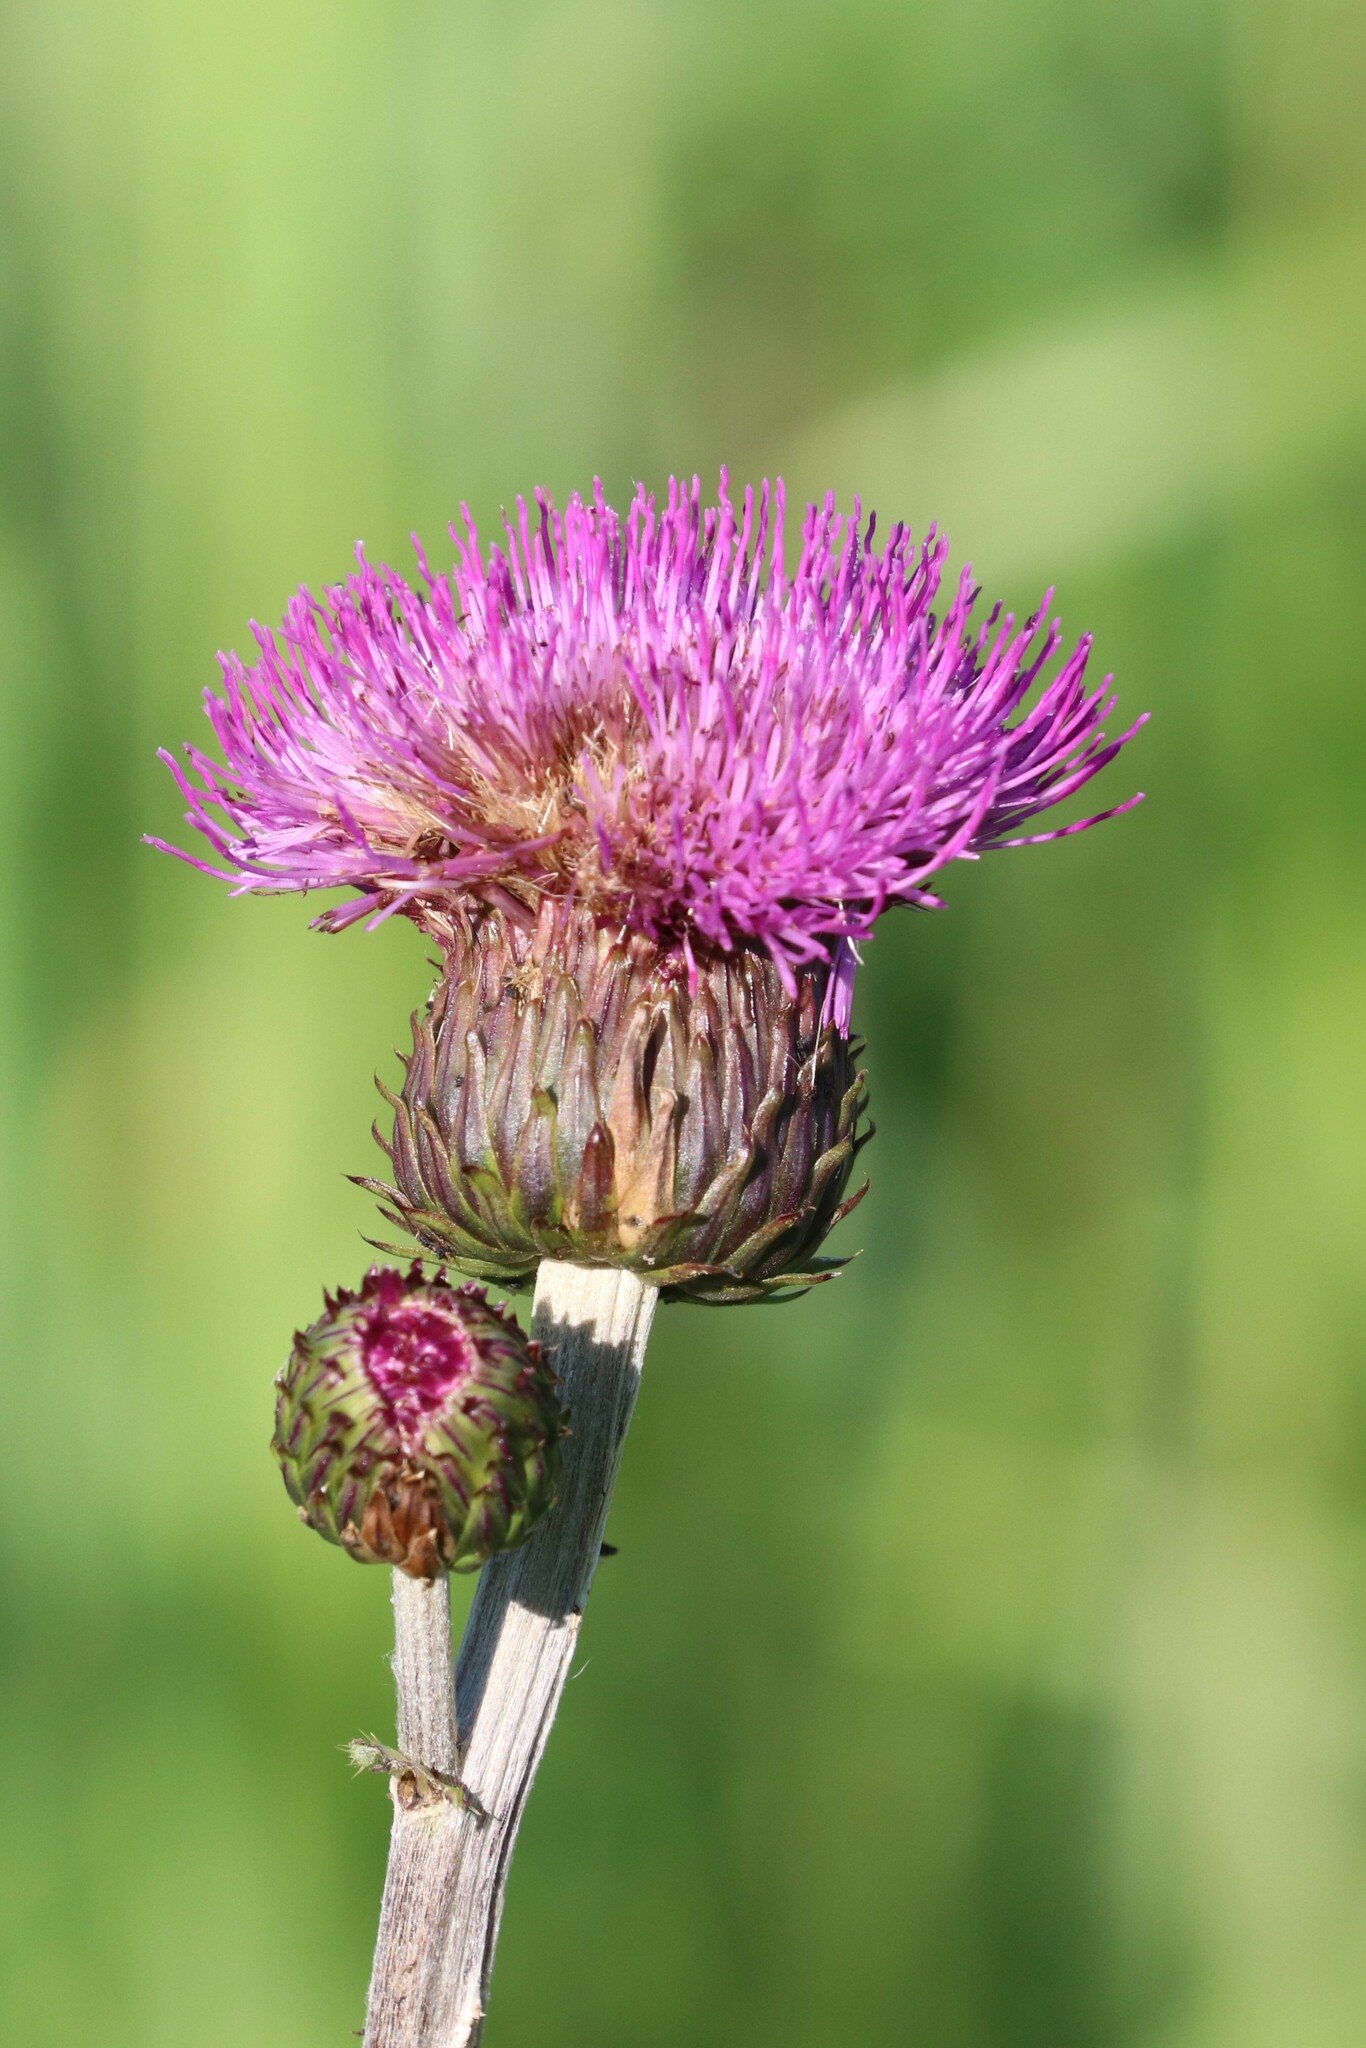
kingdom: Plantae
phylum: Tracheophyta
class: Magnoliopsida
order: Asterales
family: Asteraceae
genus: Cirsium
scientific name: Cirsium heterophyllum
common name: Melancholy thistle
